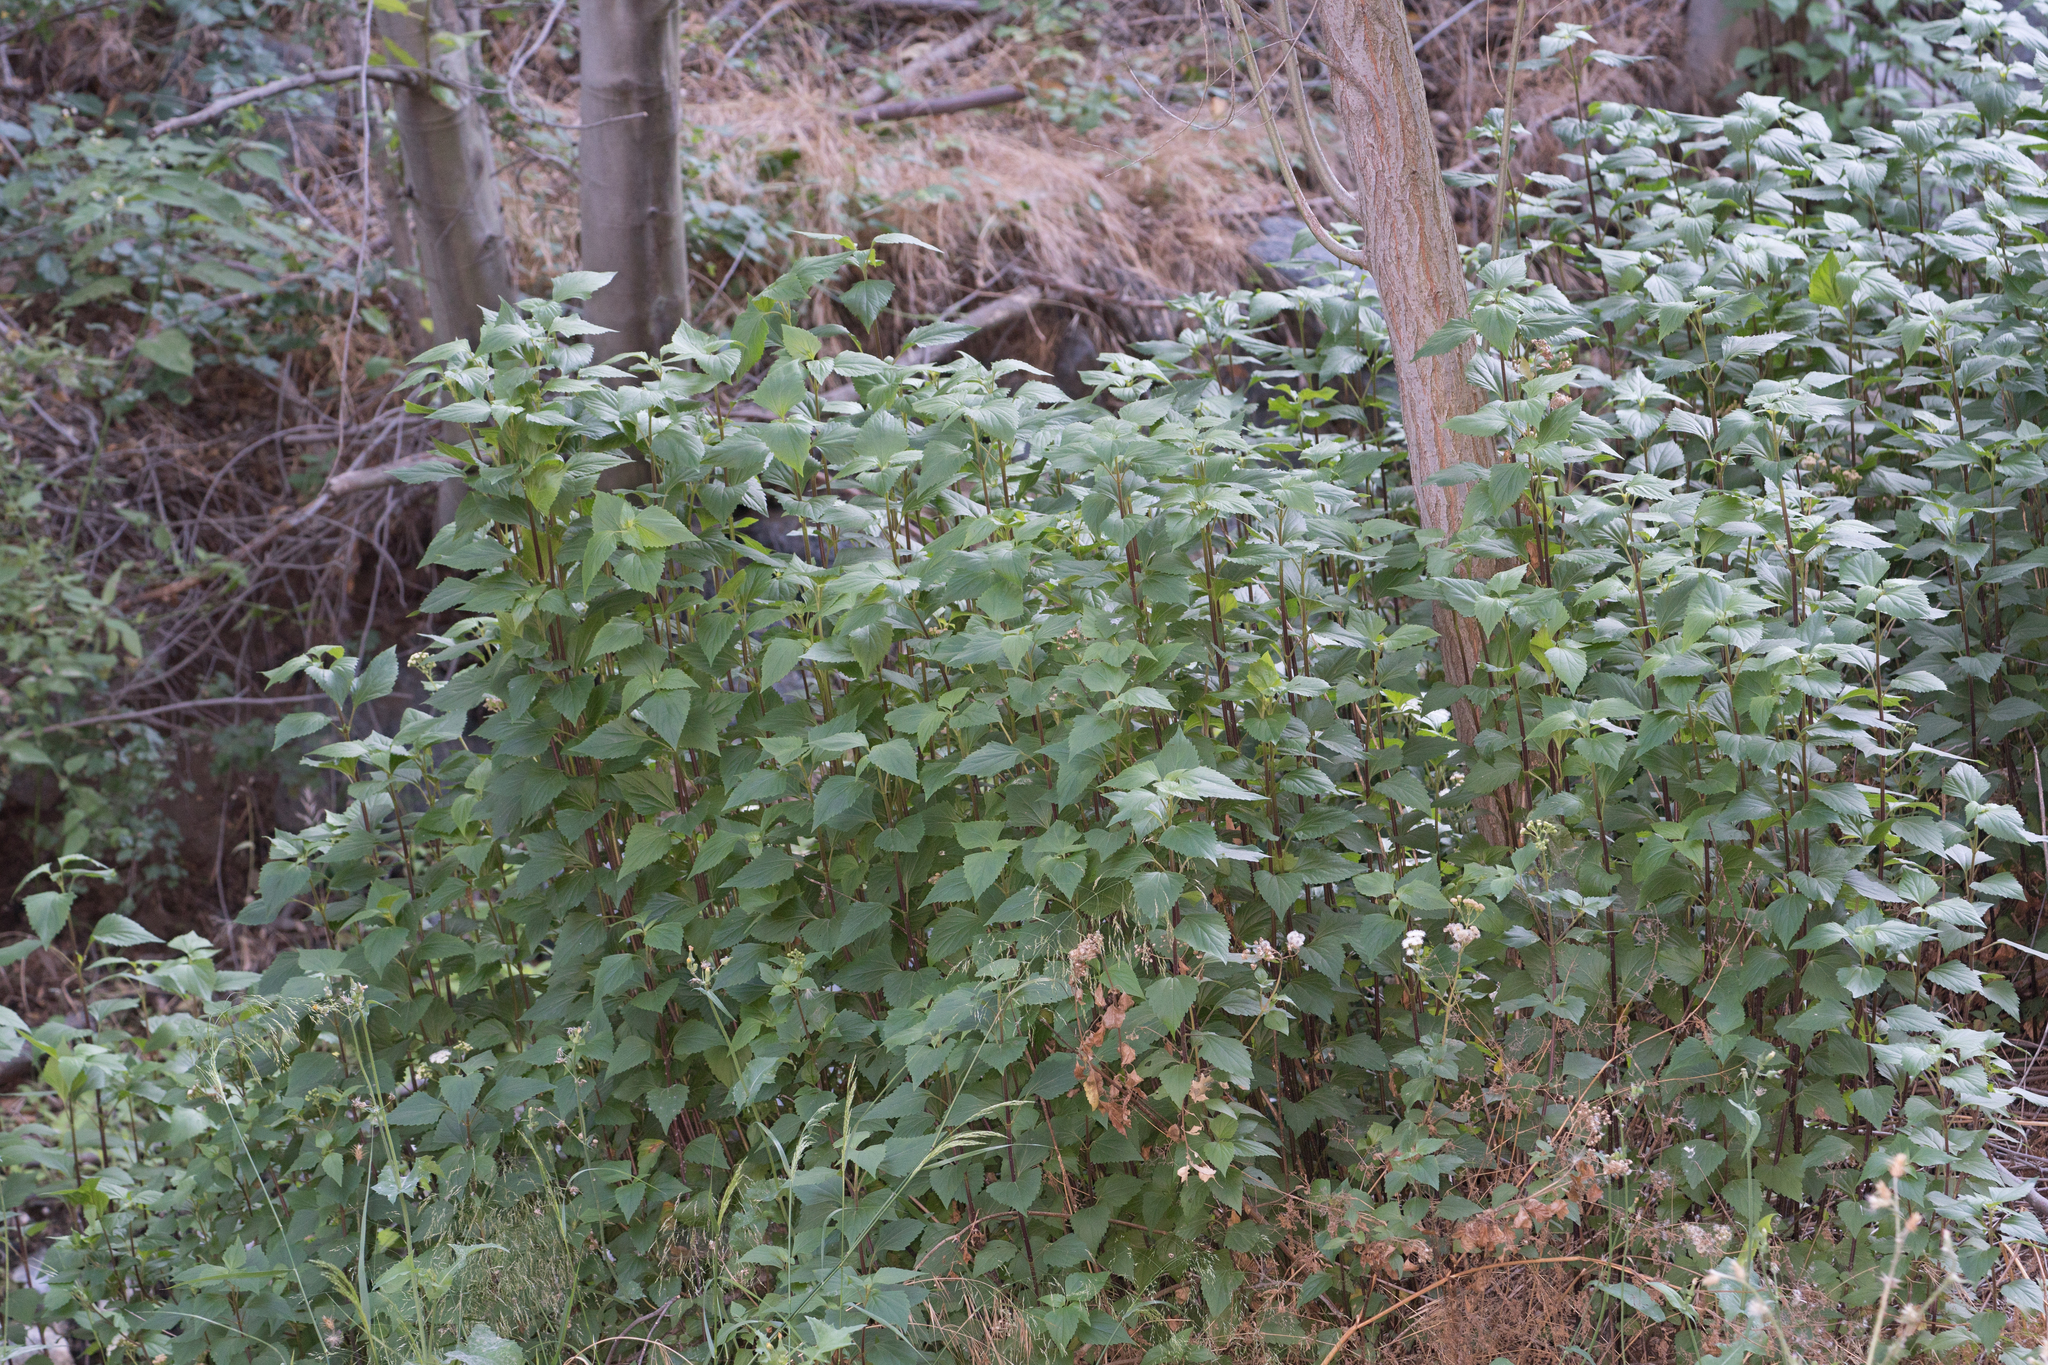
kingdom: Plantae
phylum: Tracheophyta
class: Magnoliopsida
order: Asterales
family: Asteraceae
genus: Ageratina
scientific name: Ageratina adenophora
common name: Sticky snakeroot
